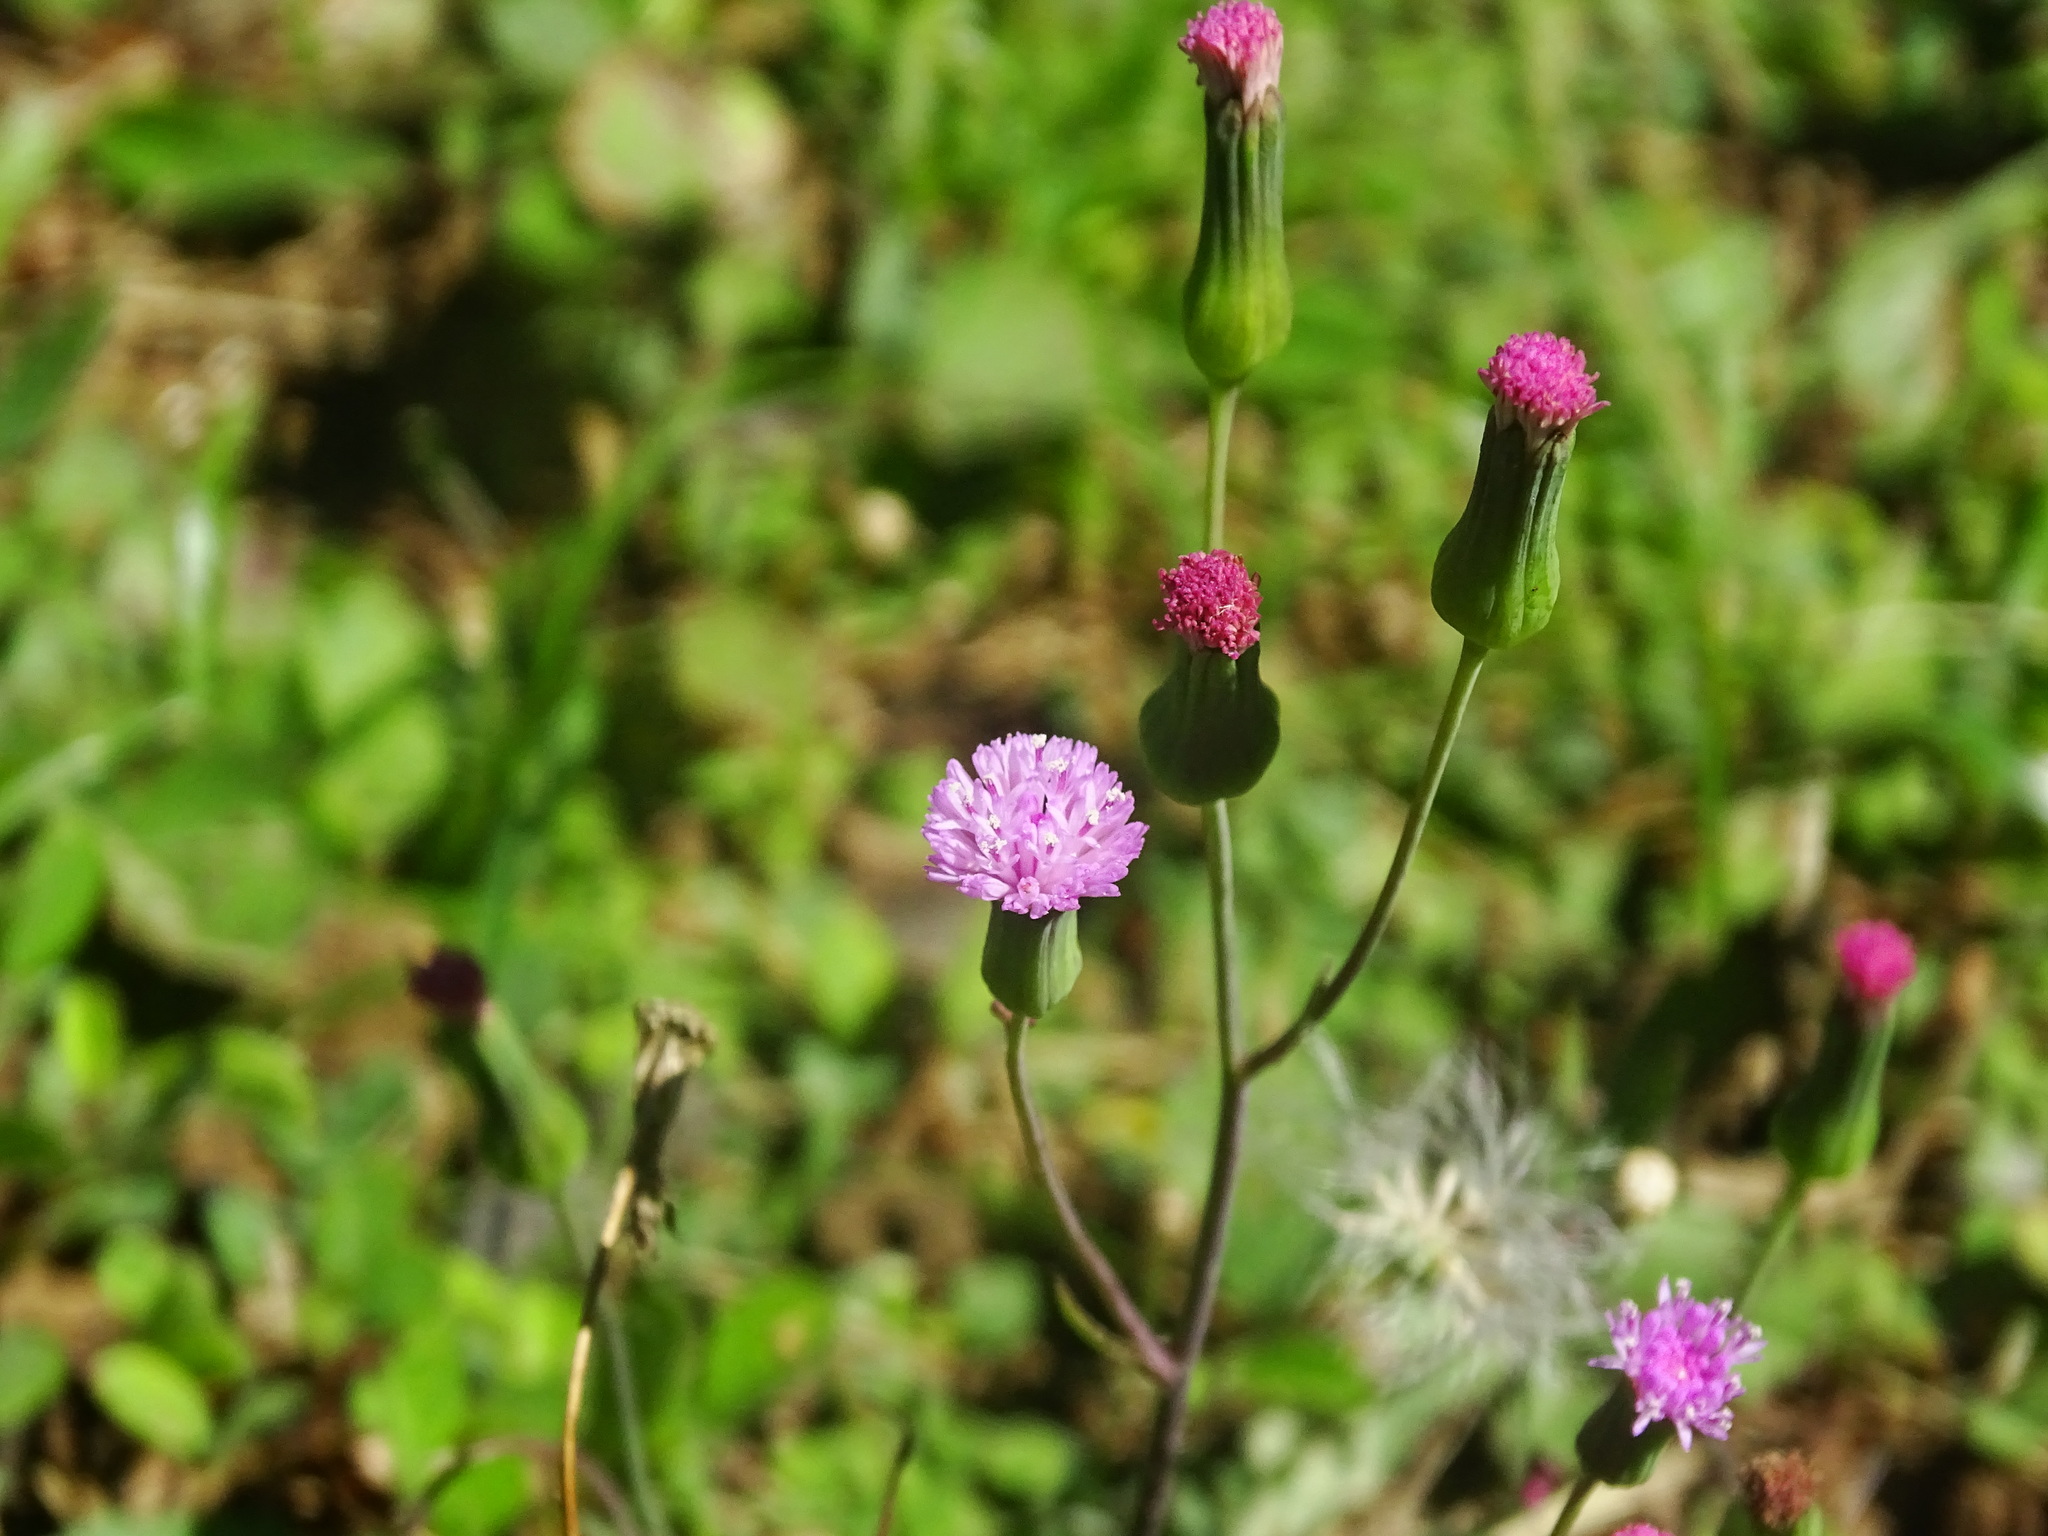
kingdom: Plantae
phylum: Tracheophyta
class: Magnoliopsida
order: Asterales
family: Asteraceae
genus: Emilia
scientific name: Emilia sonchifolia
